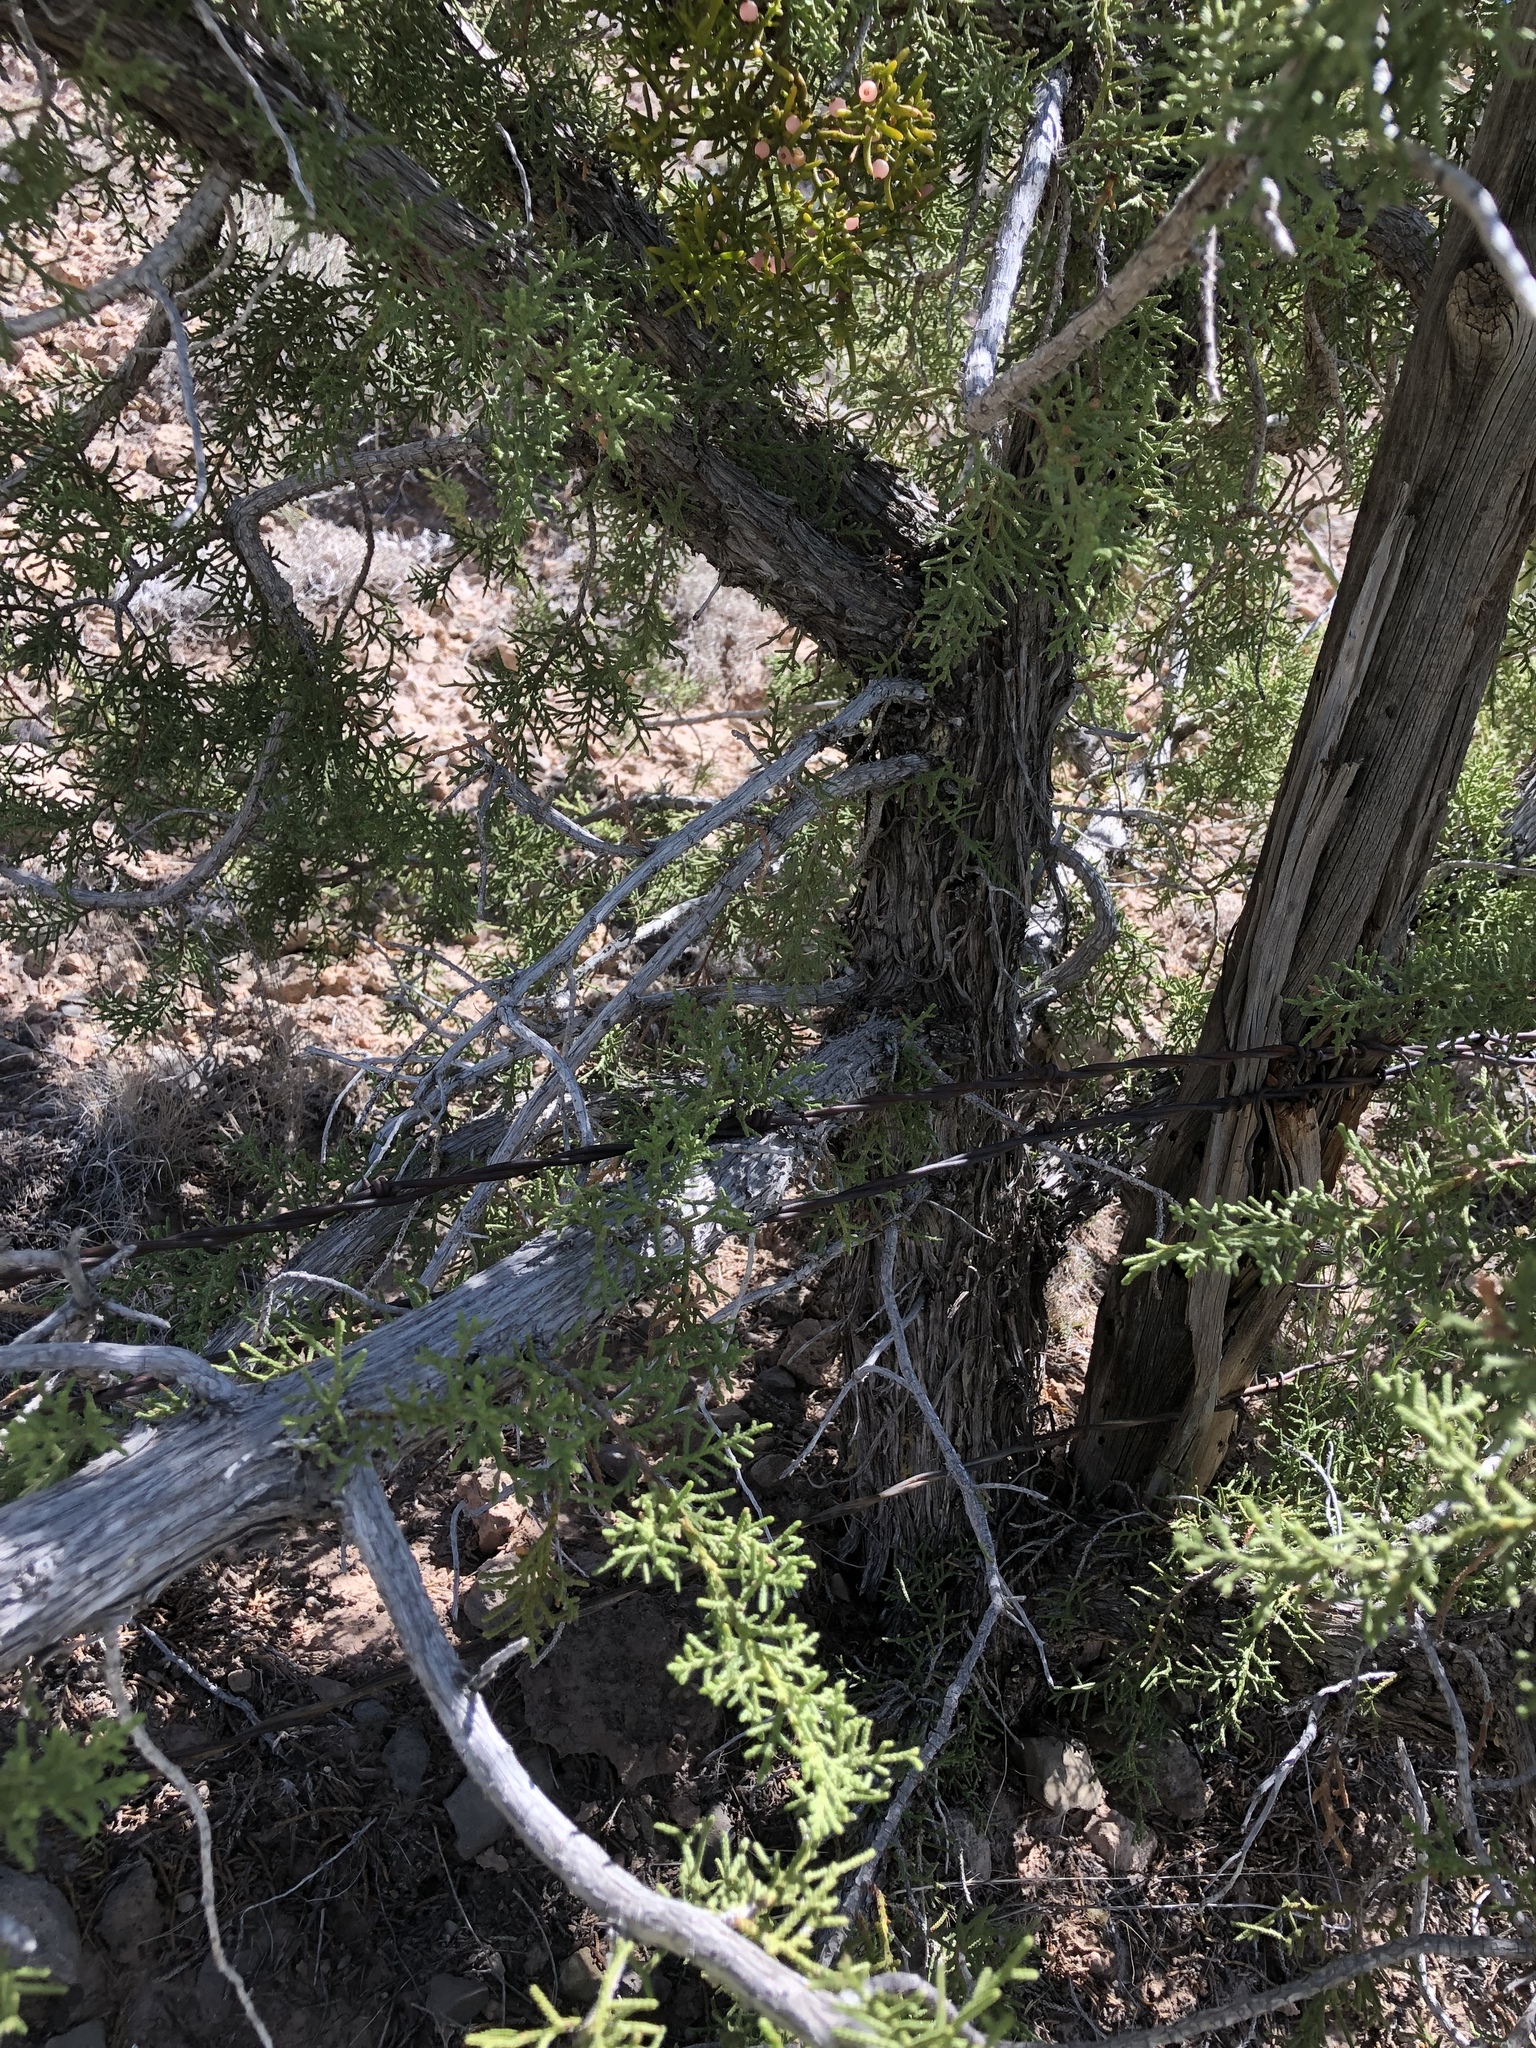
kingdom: Plantae
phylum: Tracheophyta
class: Pinopsida
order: Pinales
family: Cupressaceae
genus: Juniperus
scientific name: Juniperus monosperma
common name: One-seed juniper
